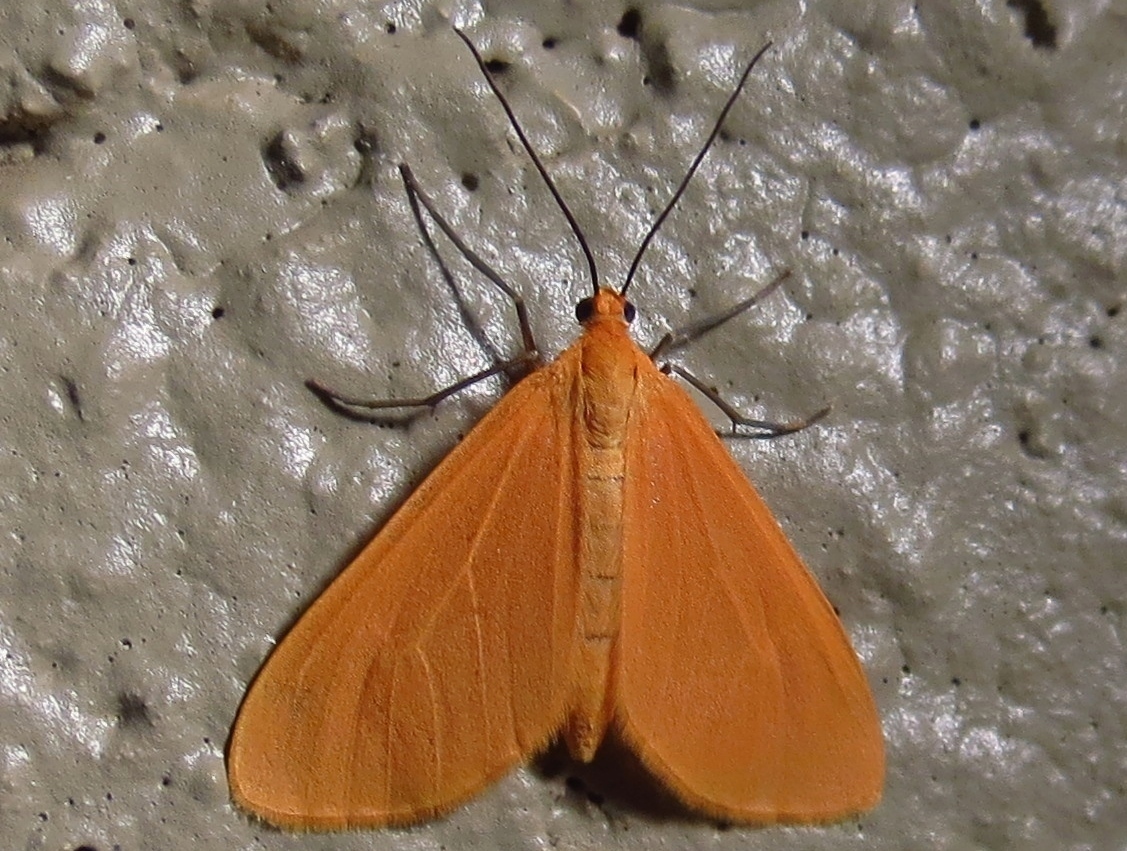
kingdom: Animalia
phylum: Arthropoda
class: Insecta
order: Lepidoptera
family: Geometridae
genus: Eubaphe
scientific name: Eubaphe unicolor
